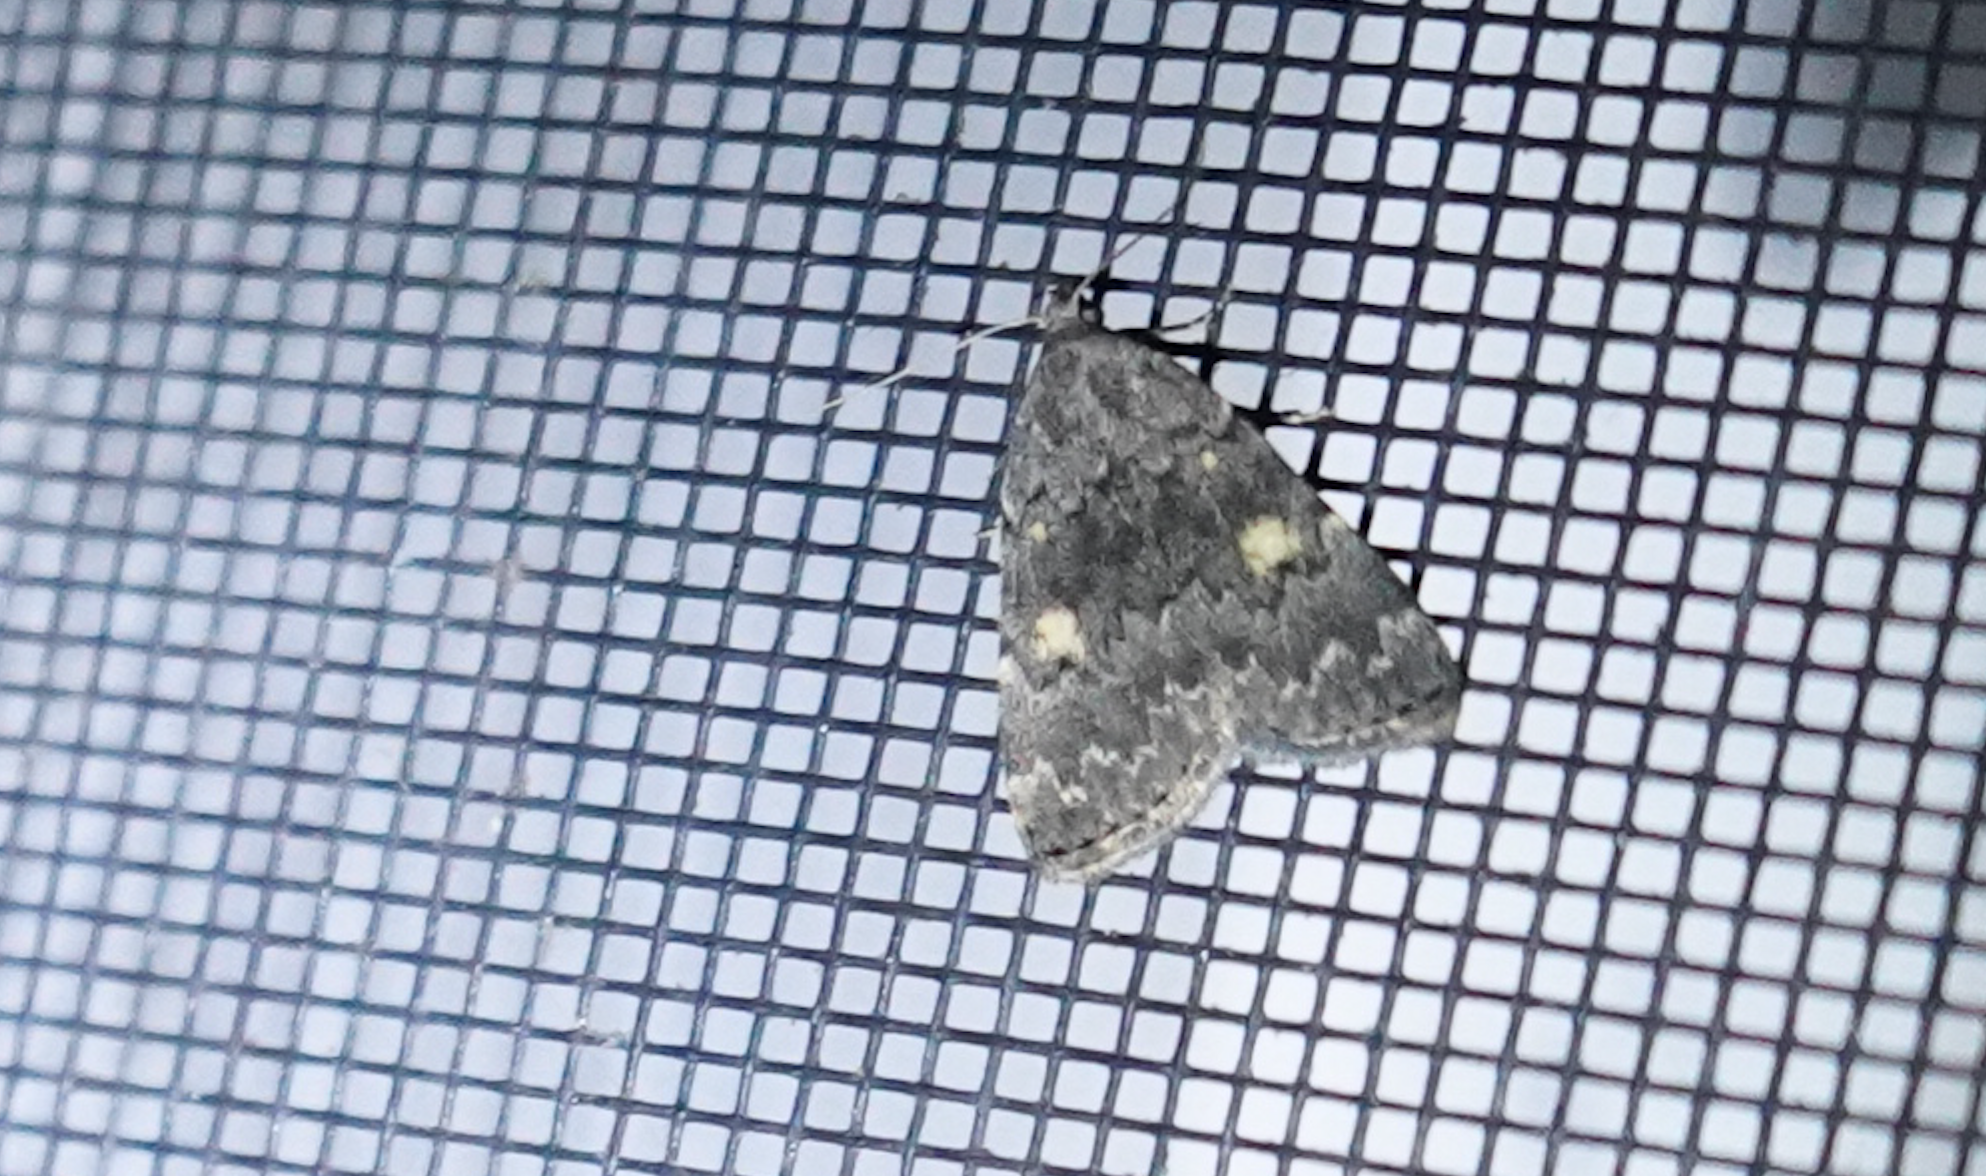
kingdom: Animalia
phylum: Arthropoda
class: Insecta
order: Lepidoptera
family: Erebidae
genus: Idia
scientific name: Idia aemula
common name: Common idia moth
